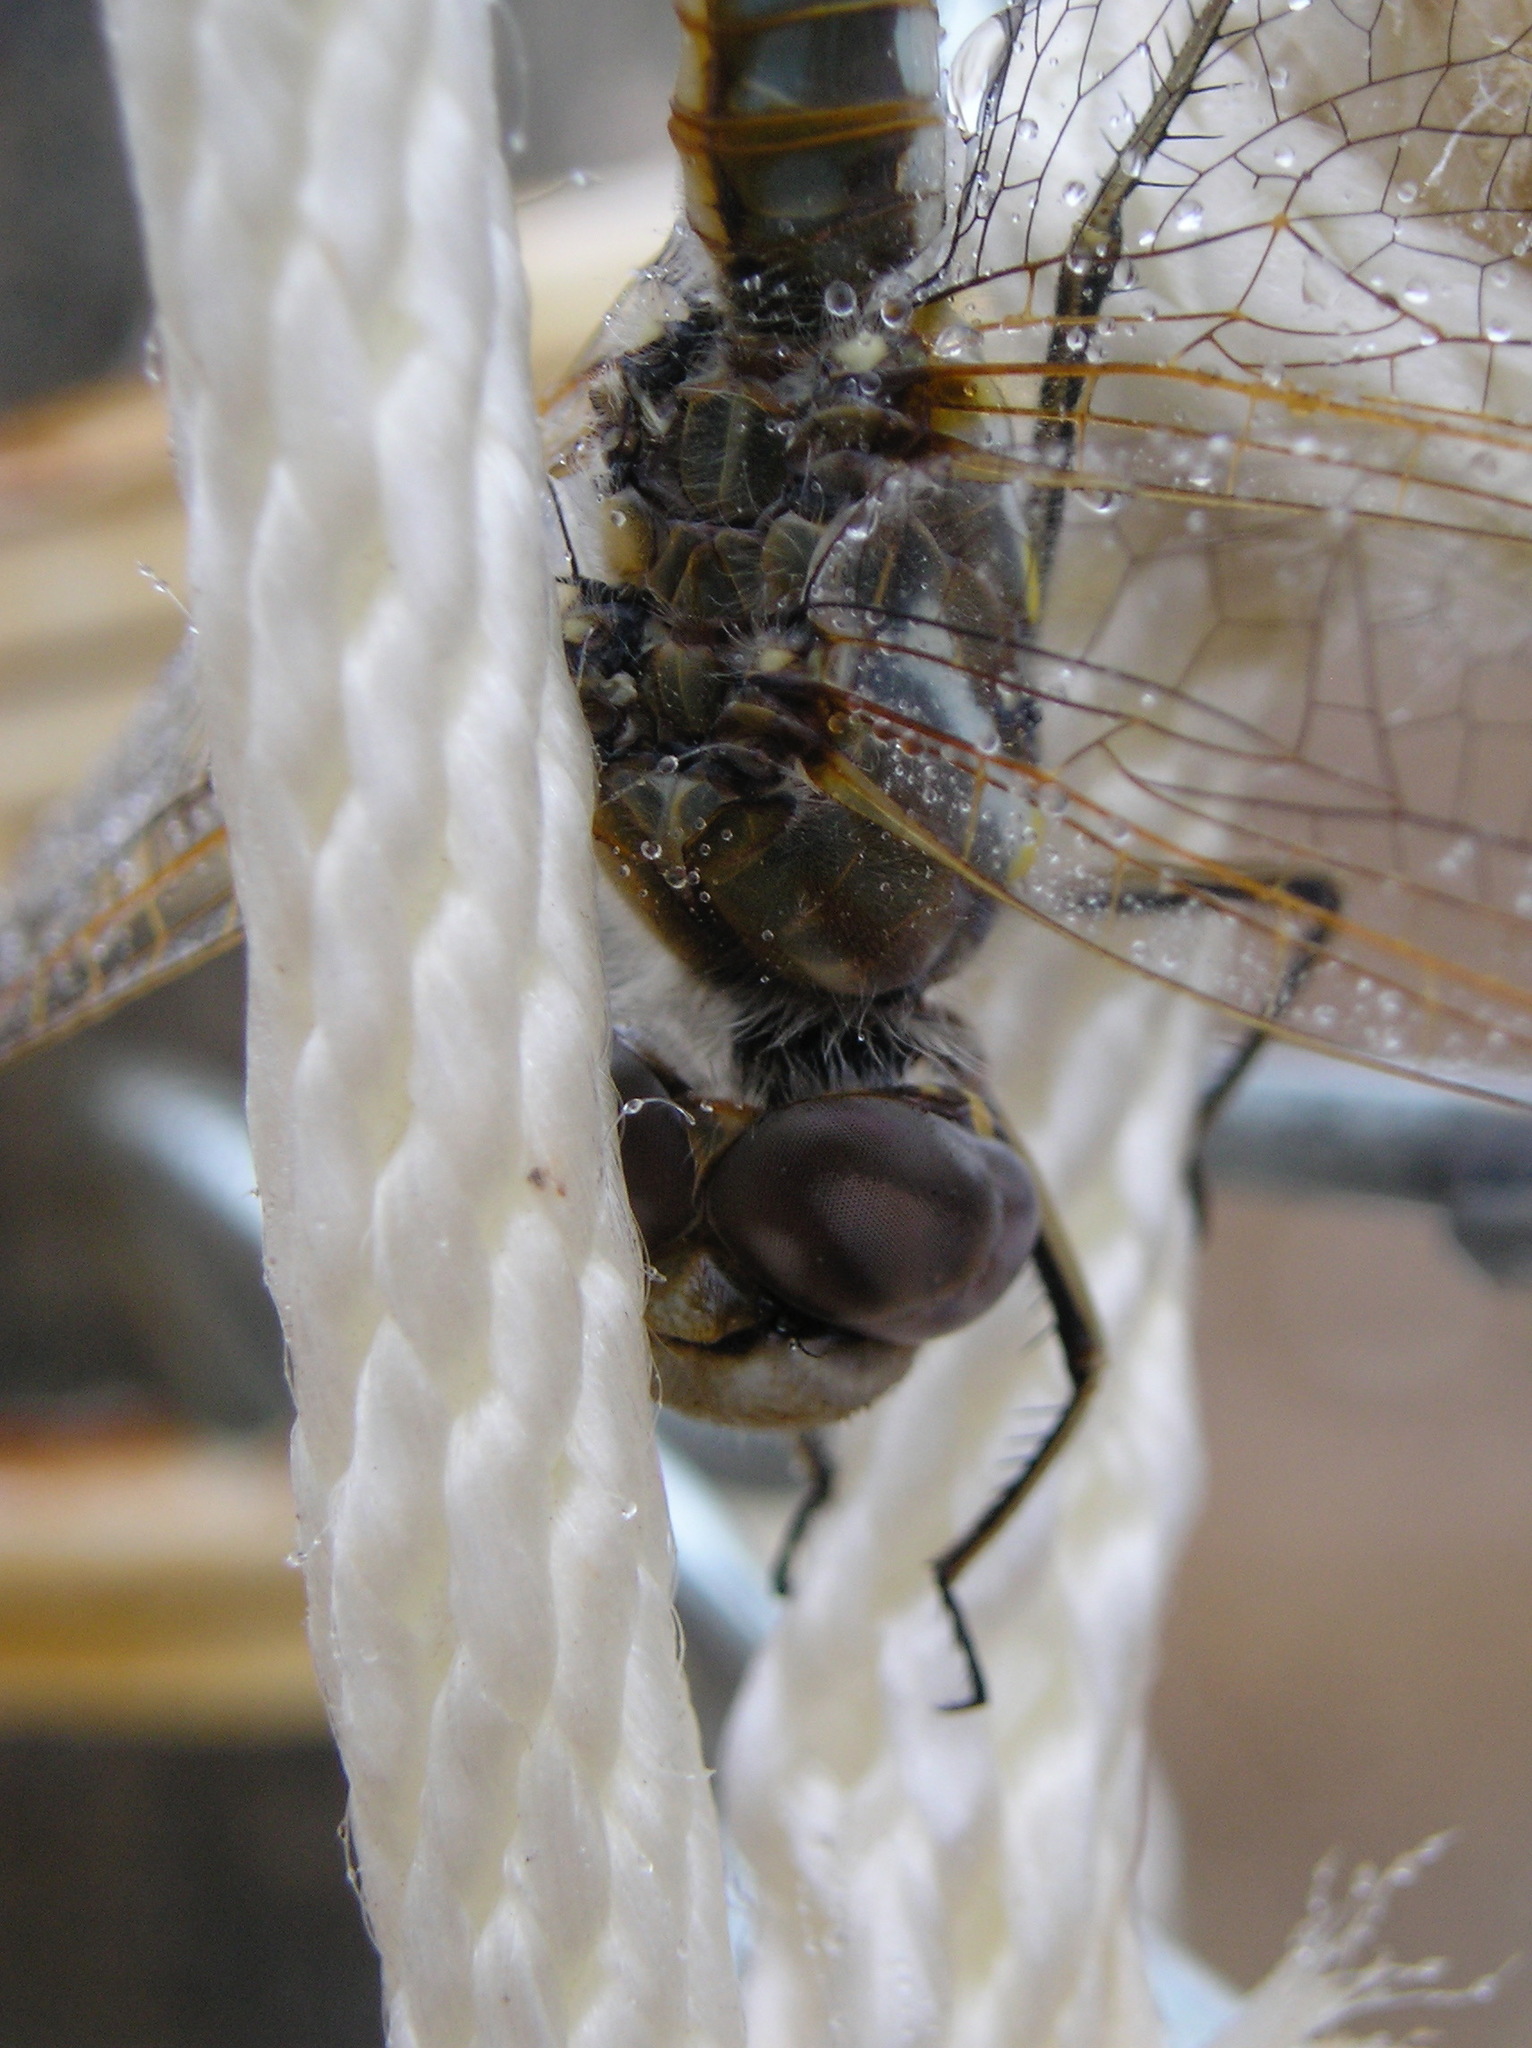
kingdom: Animalia
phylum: Arthropoda
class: Insecta
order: Odonata
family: Libellulidae
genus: Sympetrum
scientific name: Sympetrum corruptum
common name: Variegated meadowhawk
